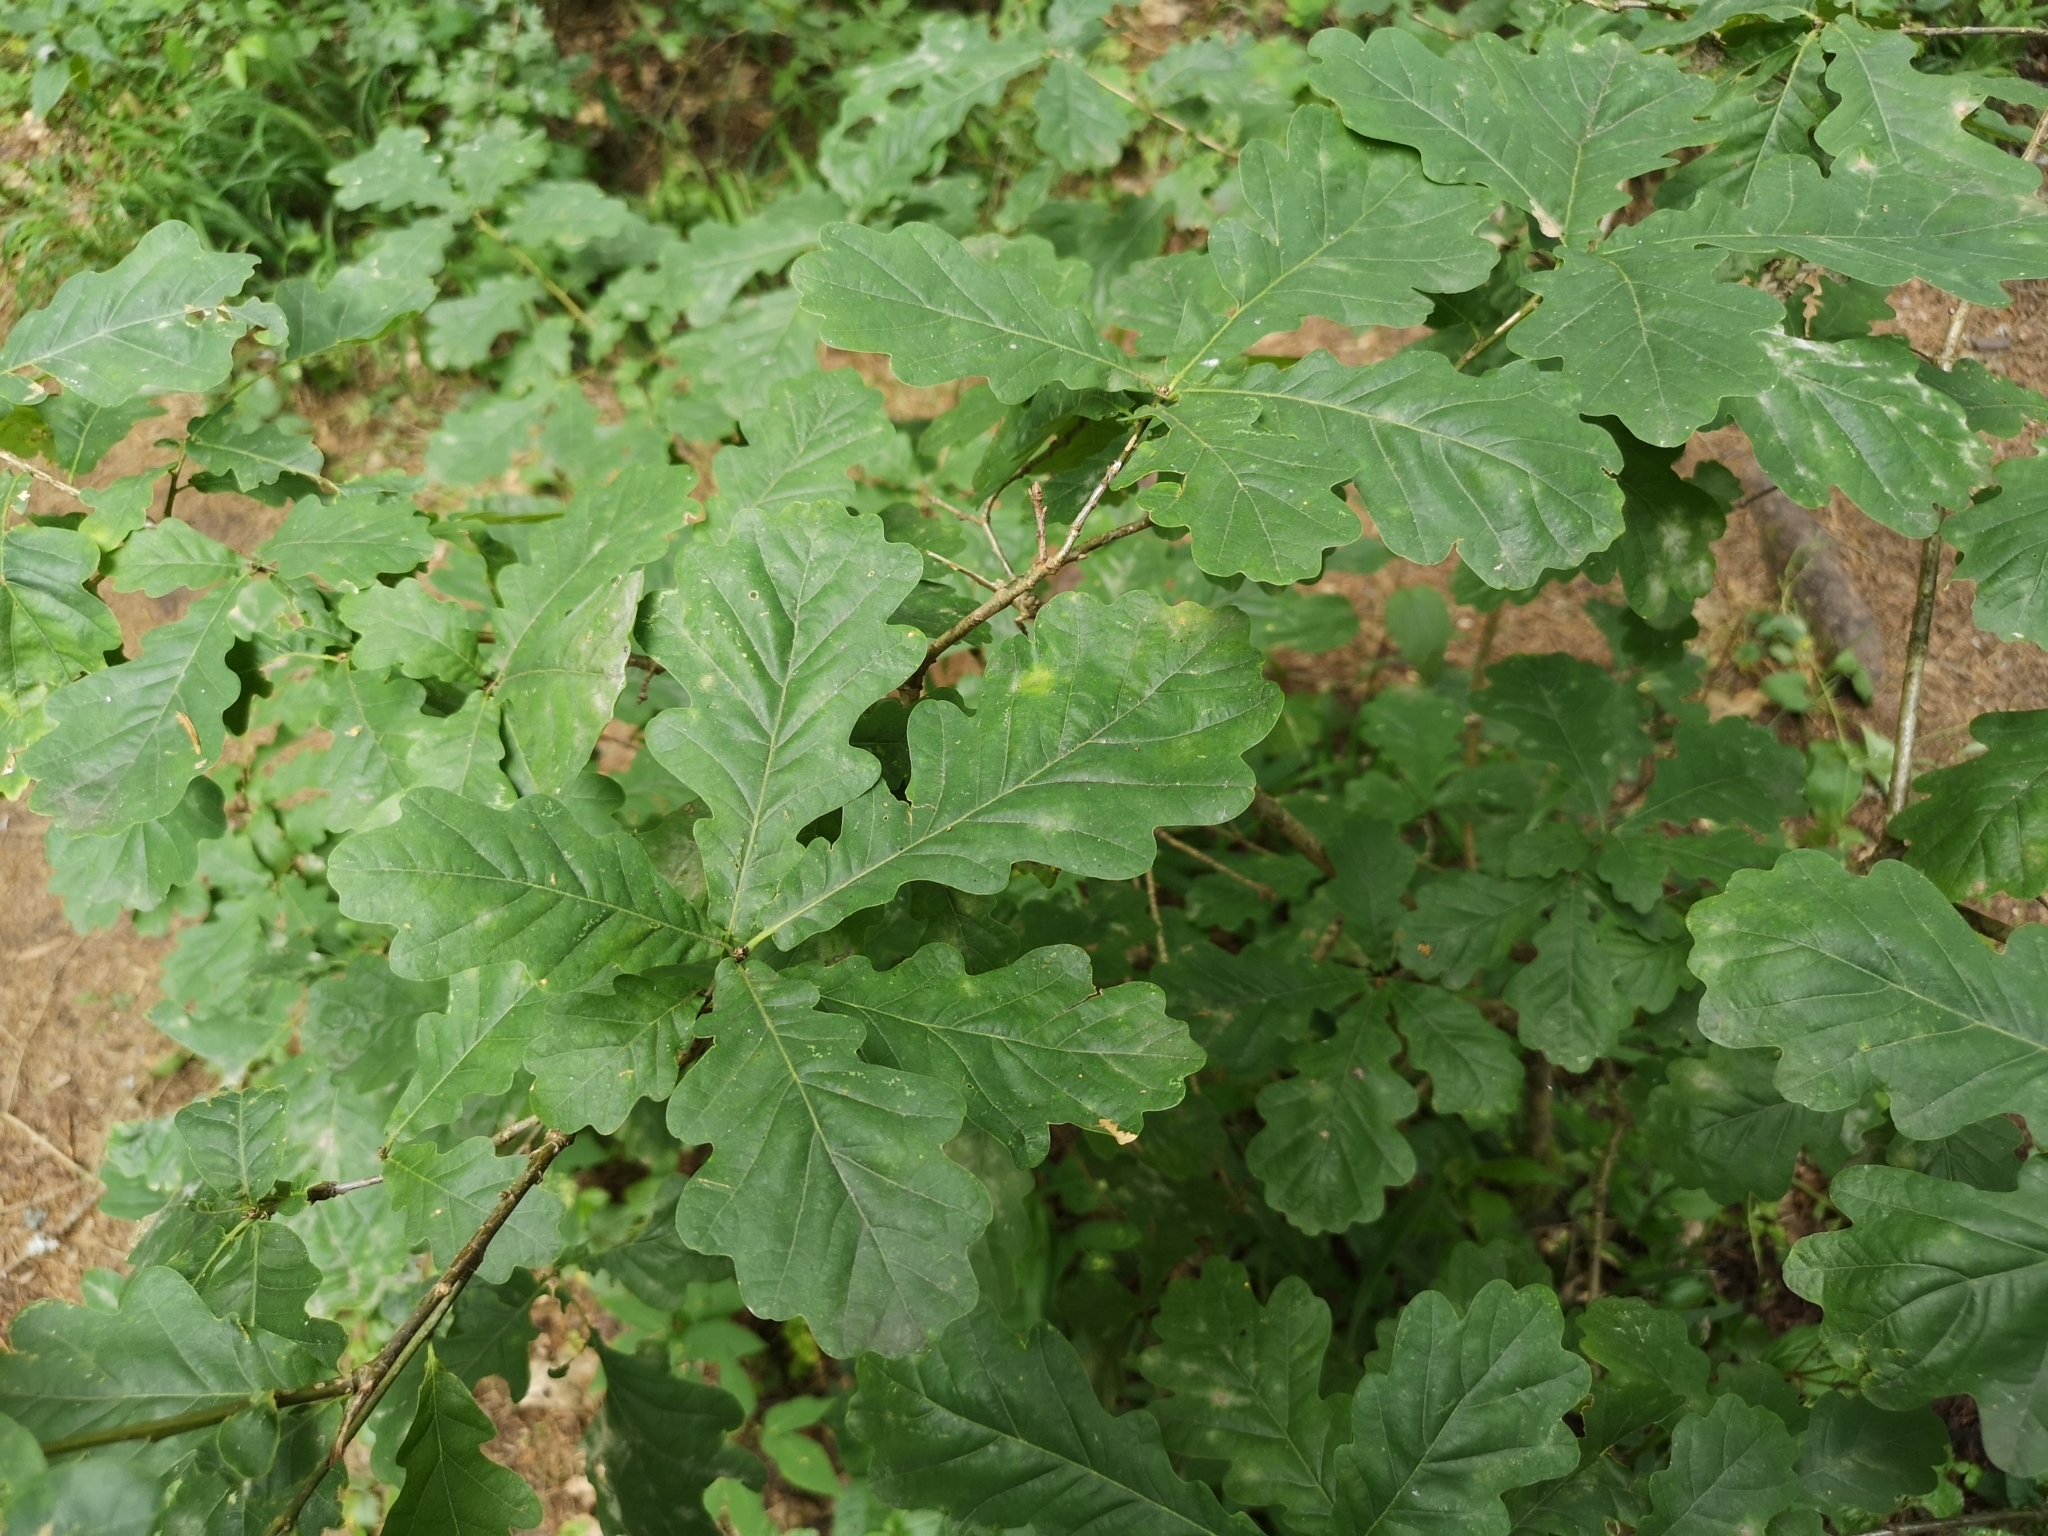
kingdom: Plantae
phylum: Tracheophyta
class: Magnoliopsida
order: Fagales
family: Fagaceae
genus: Quercus
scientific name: Quercus robur
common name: Pedunculate oak
